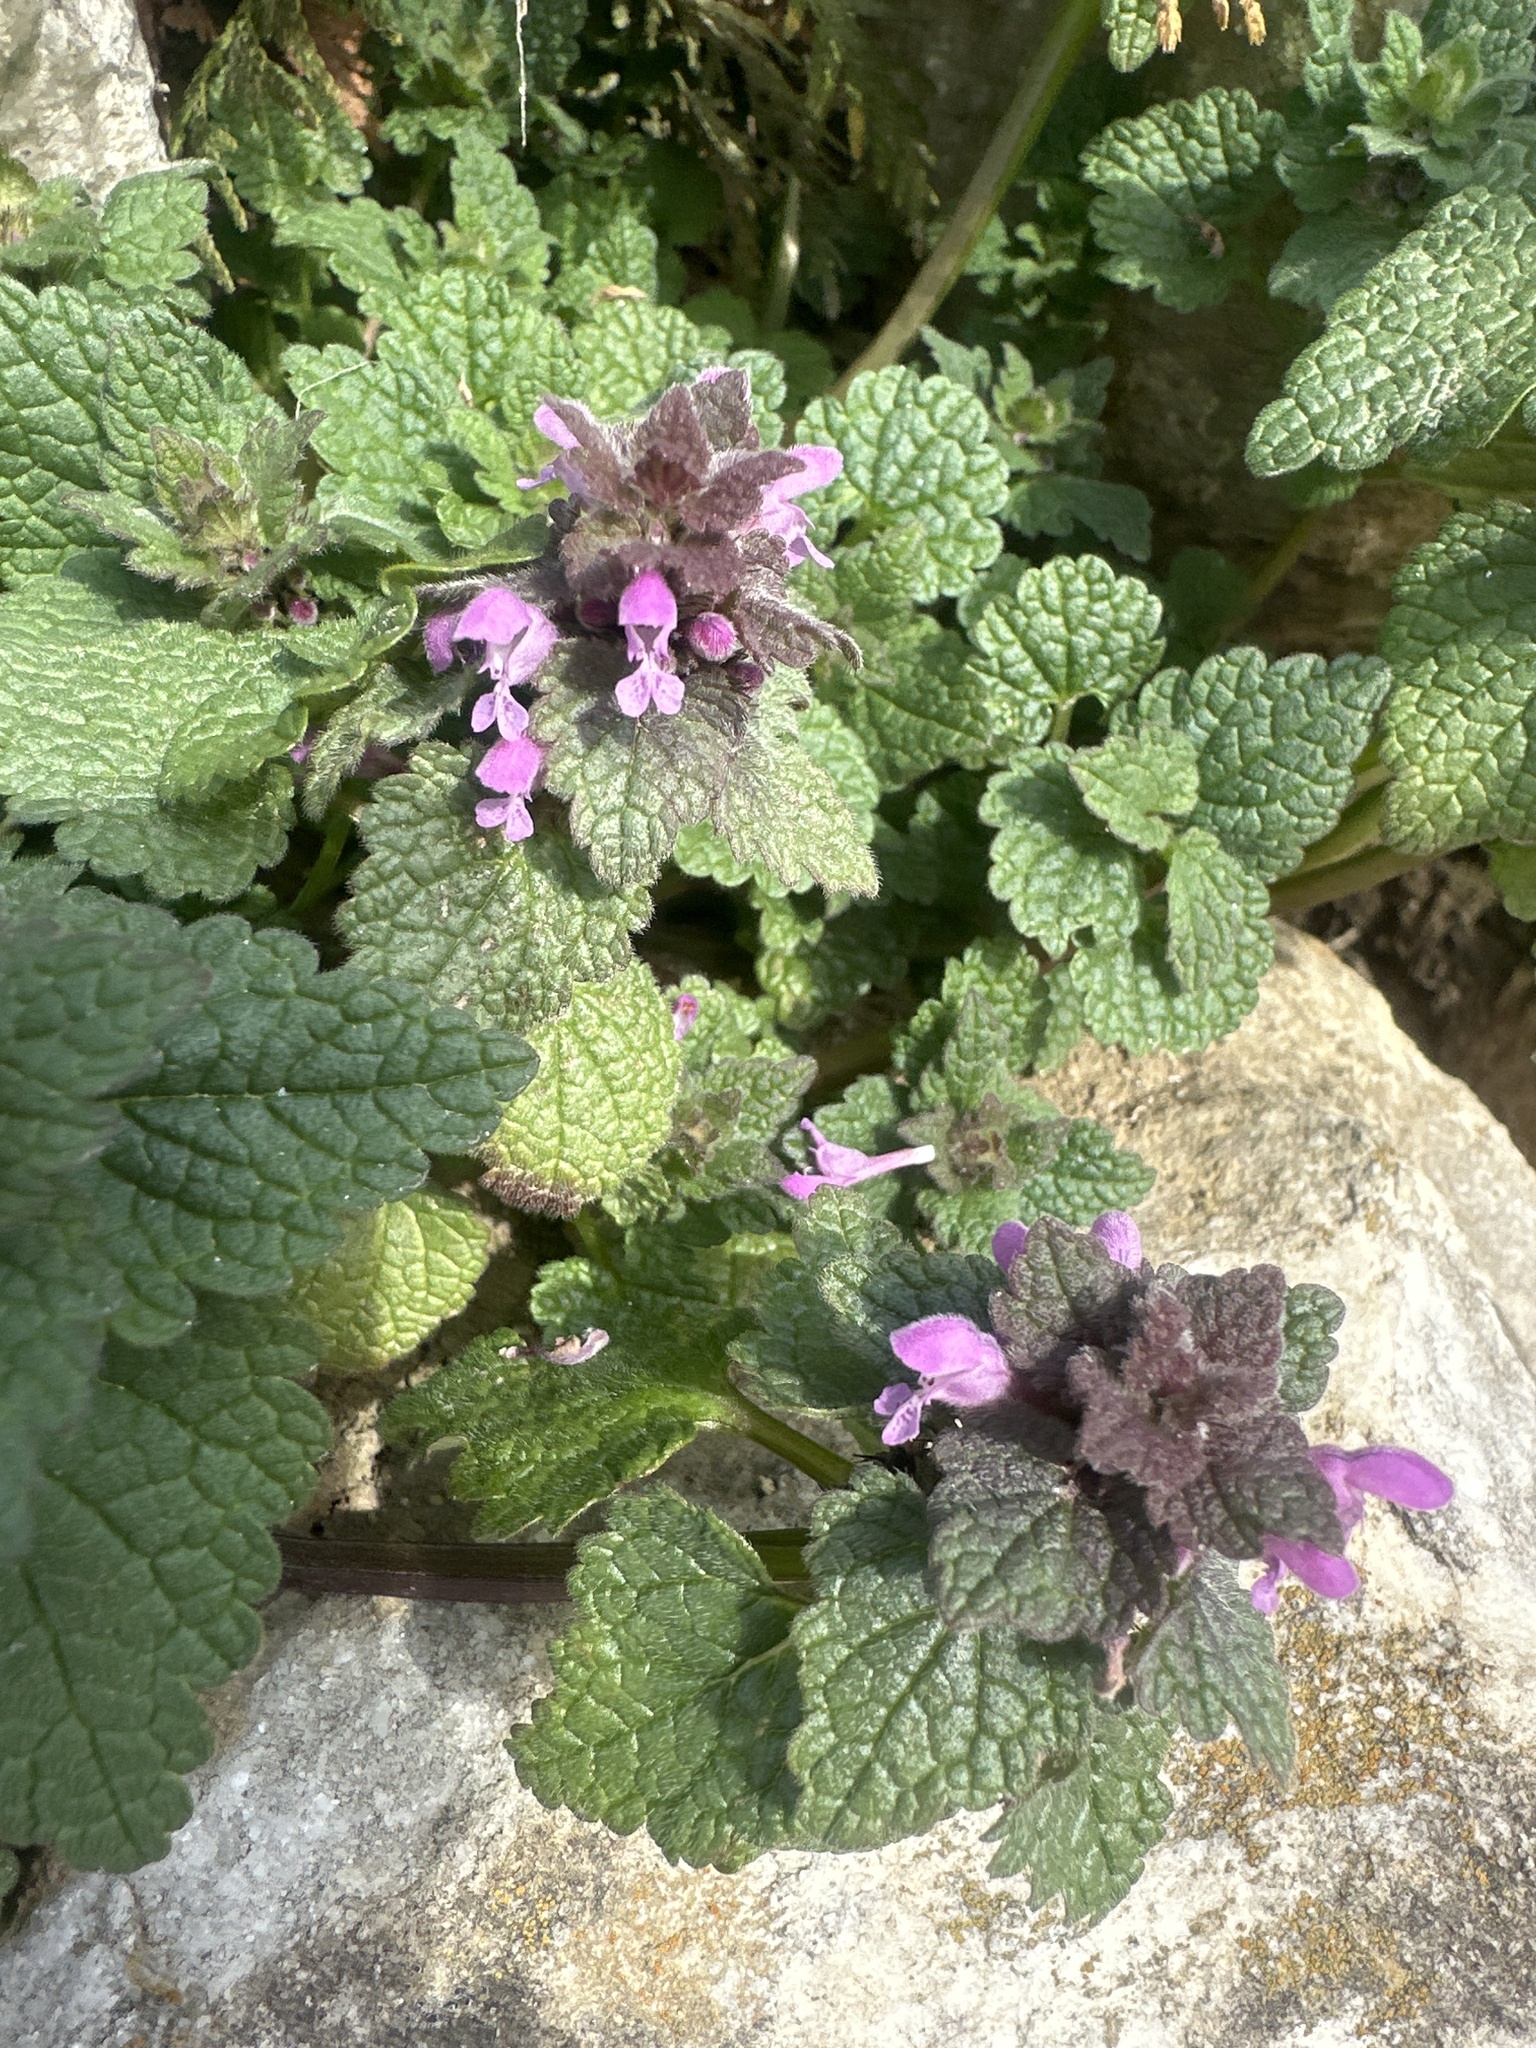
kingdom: Plantae
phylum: Tracheophyta
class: Magnoliopsida
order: Lamiales
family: Lamiaceae
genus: Lamium
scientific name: Lamium purpureum
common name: Red dead-nettle
